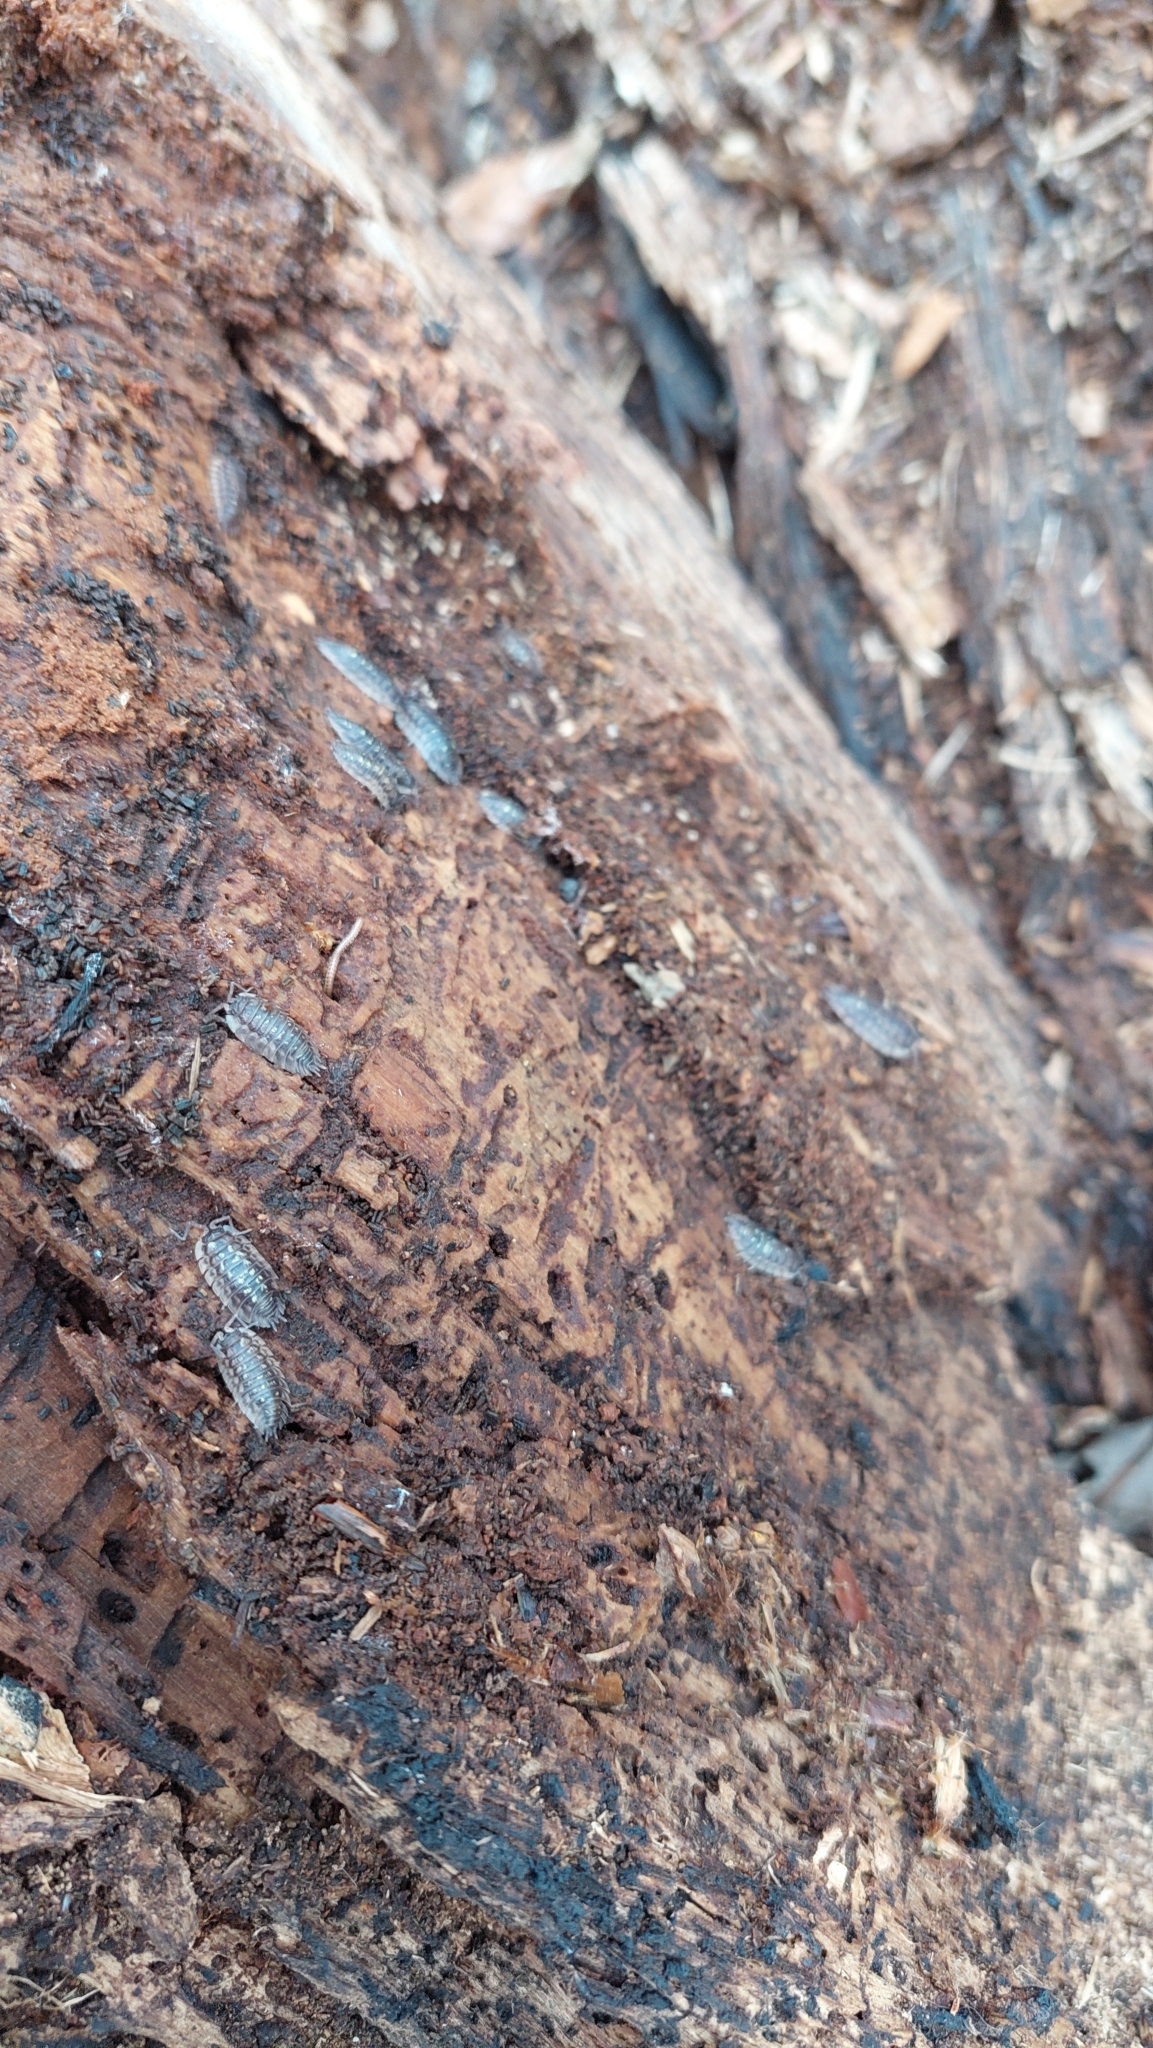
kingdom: Animalia
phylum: Arthropoda
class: Malacostraca
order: Isopoda
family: Oniscidae
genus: Oniscus
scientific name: Oniscus asellus
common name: Common shiny woodlouse
